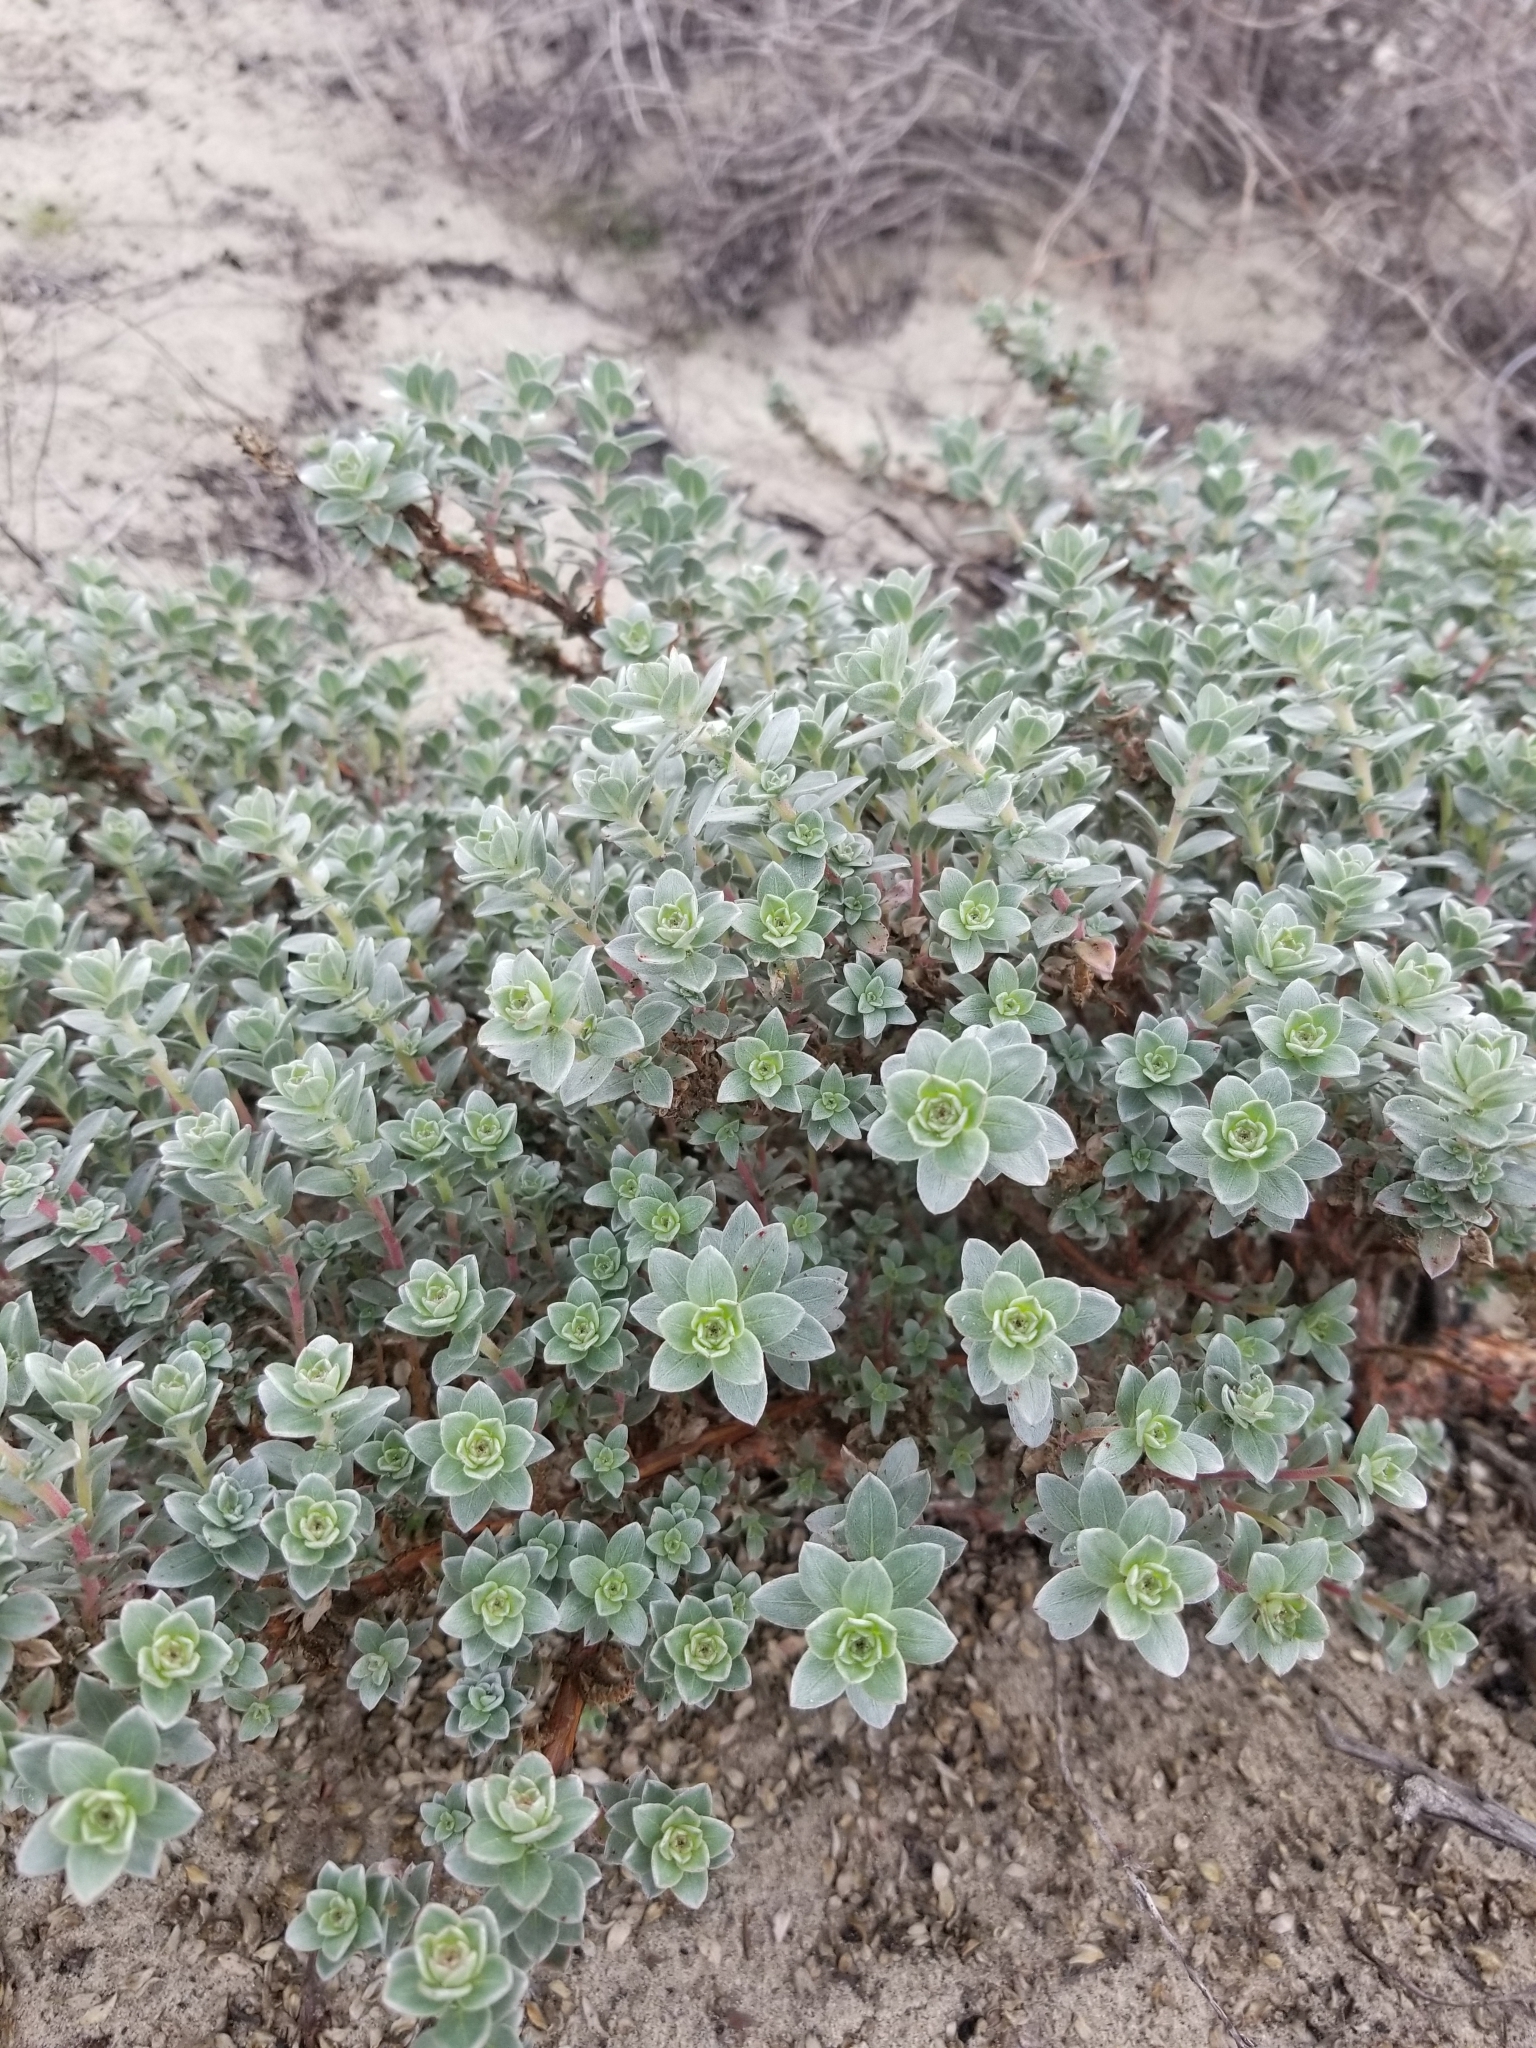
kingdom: Plantae
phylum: Tracheophyta
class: Magnoliopsida
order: Myrtales
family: Onagraceae
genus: Camissoniopsis
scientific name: Camissoniopsis cheiranthifolia
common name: Beach suncup
